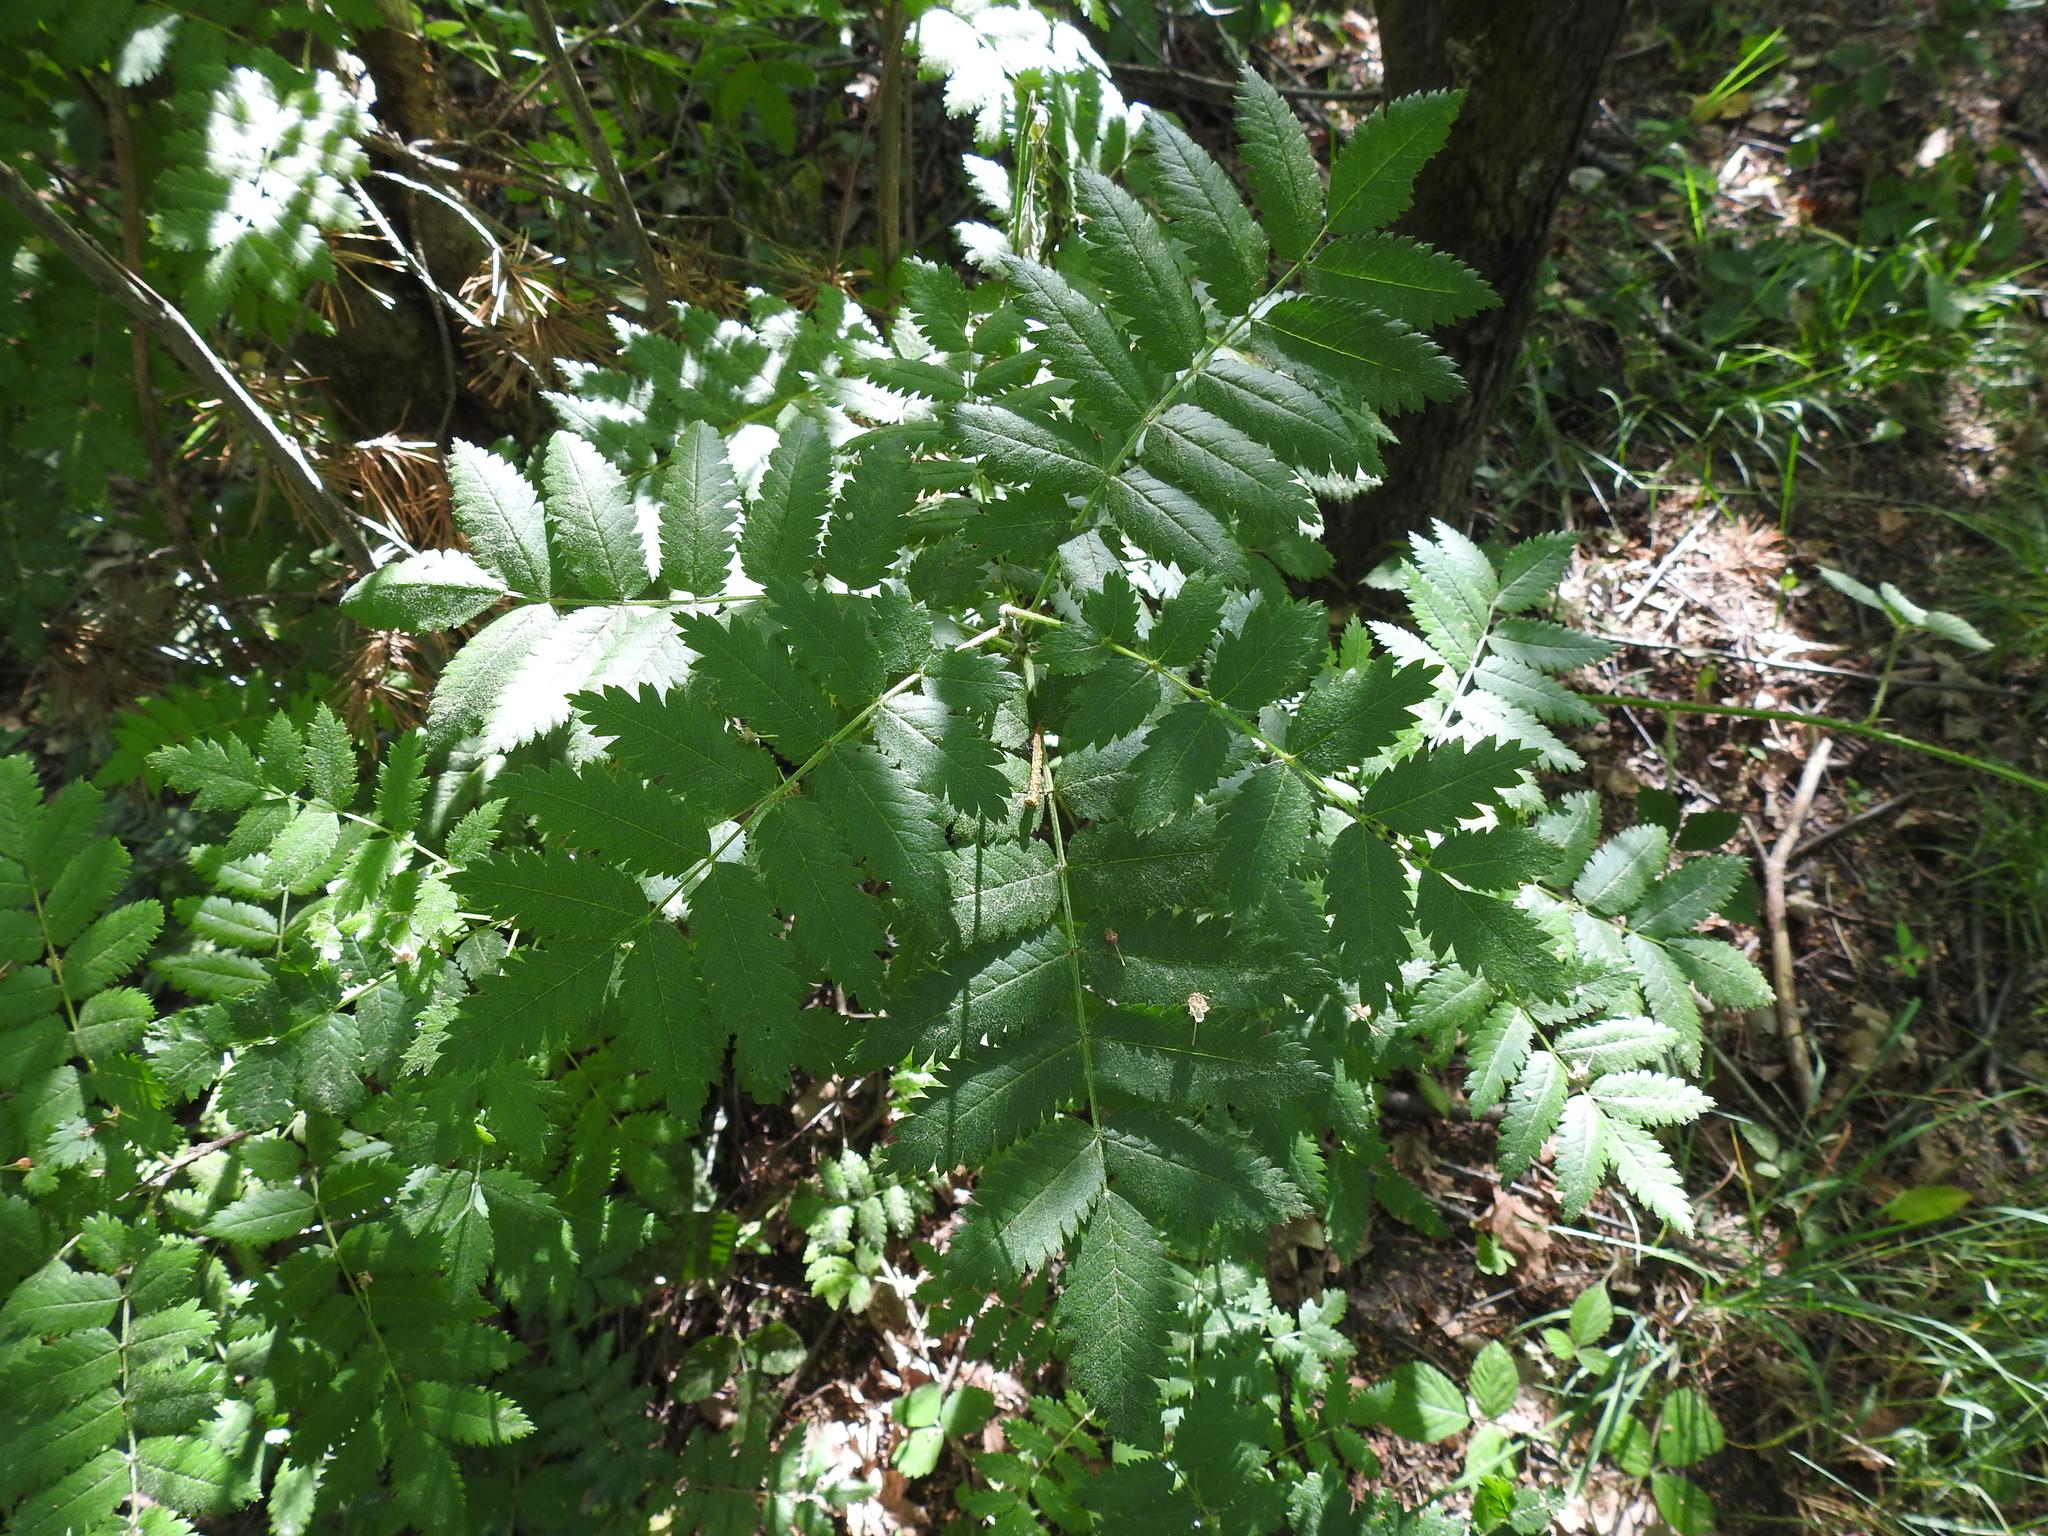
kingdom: Plantae
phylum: Tracheophyta
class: Magnoliopsida
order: Rosales
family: Rosaceae
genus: Sorbus
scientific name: Sorbus aucuparia
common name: Rowan
